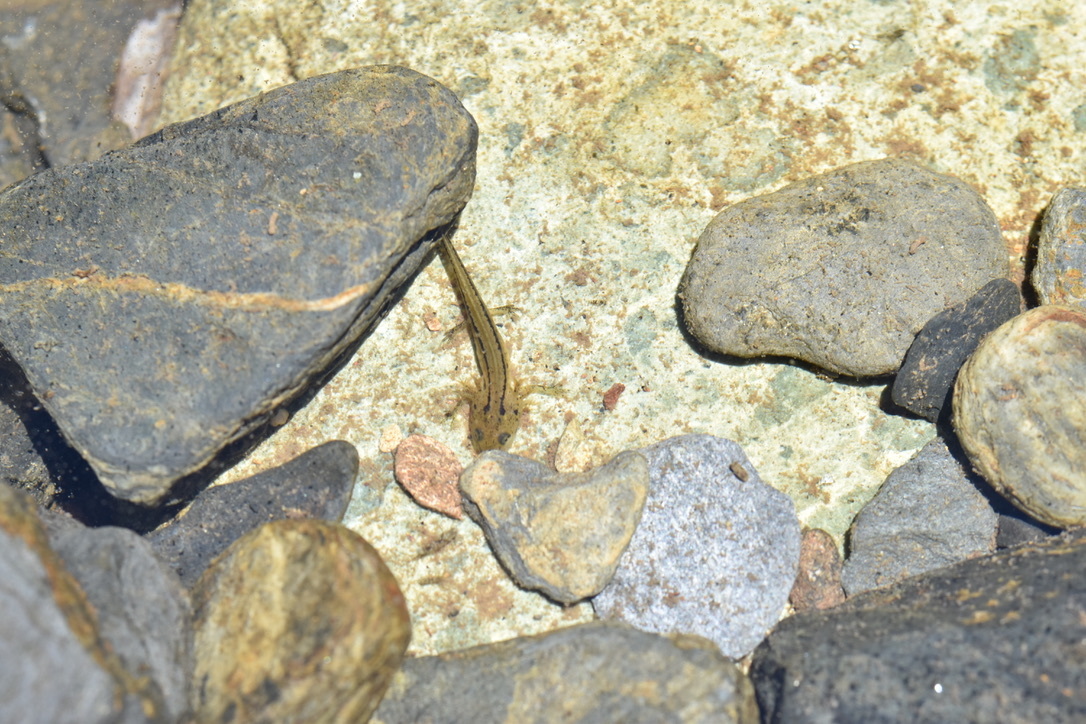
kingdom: Animalia
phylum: Chordata
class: Amphibia
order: Caudata
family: Salamandridae
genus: Taricha
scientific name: Taricha sierrae
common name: Sierra newt
